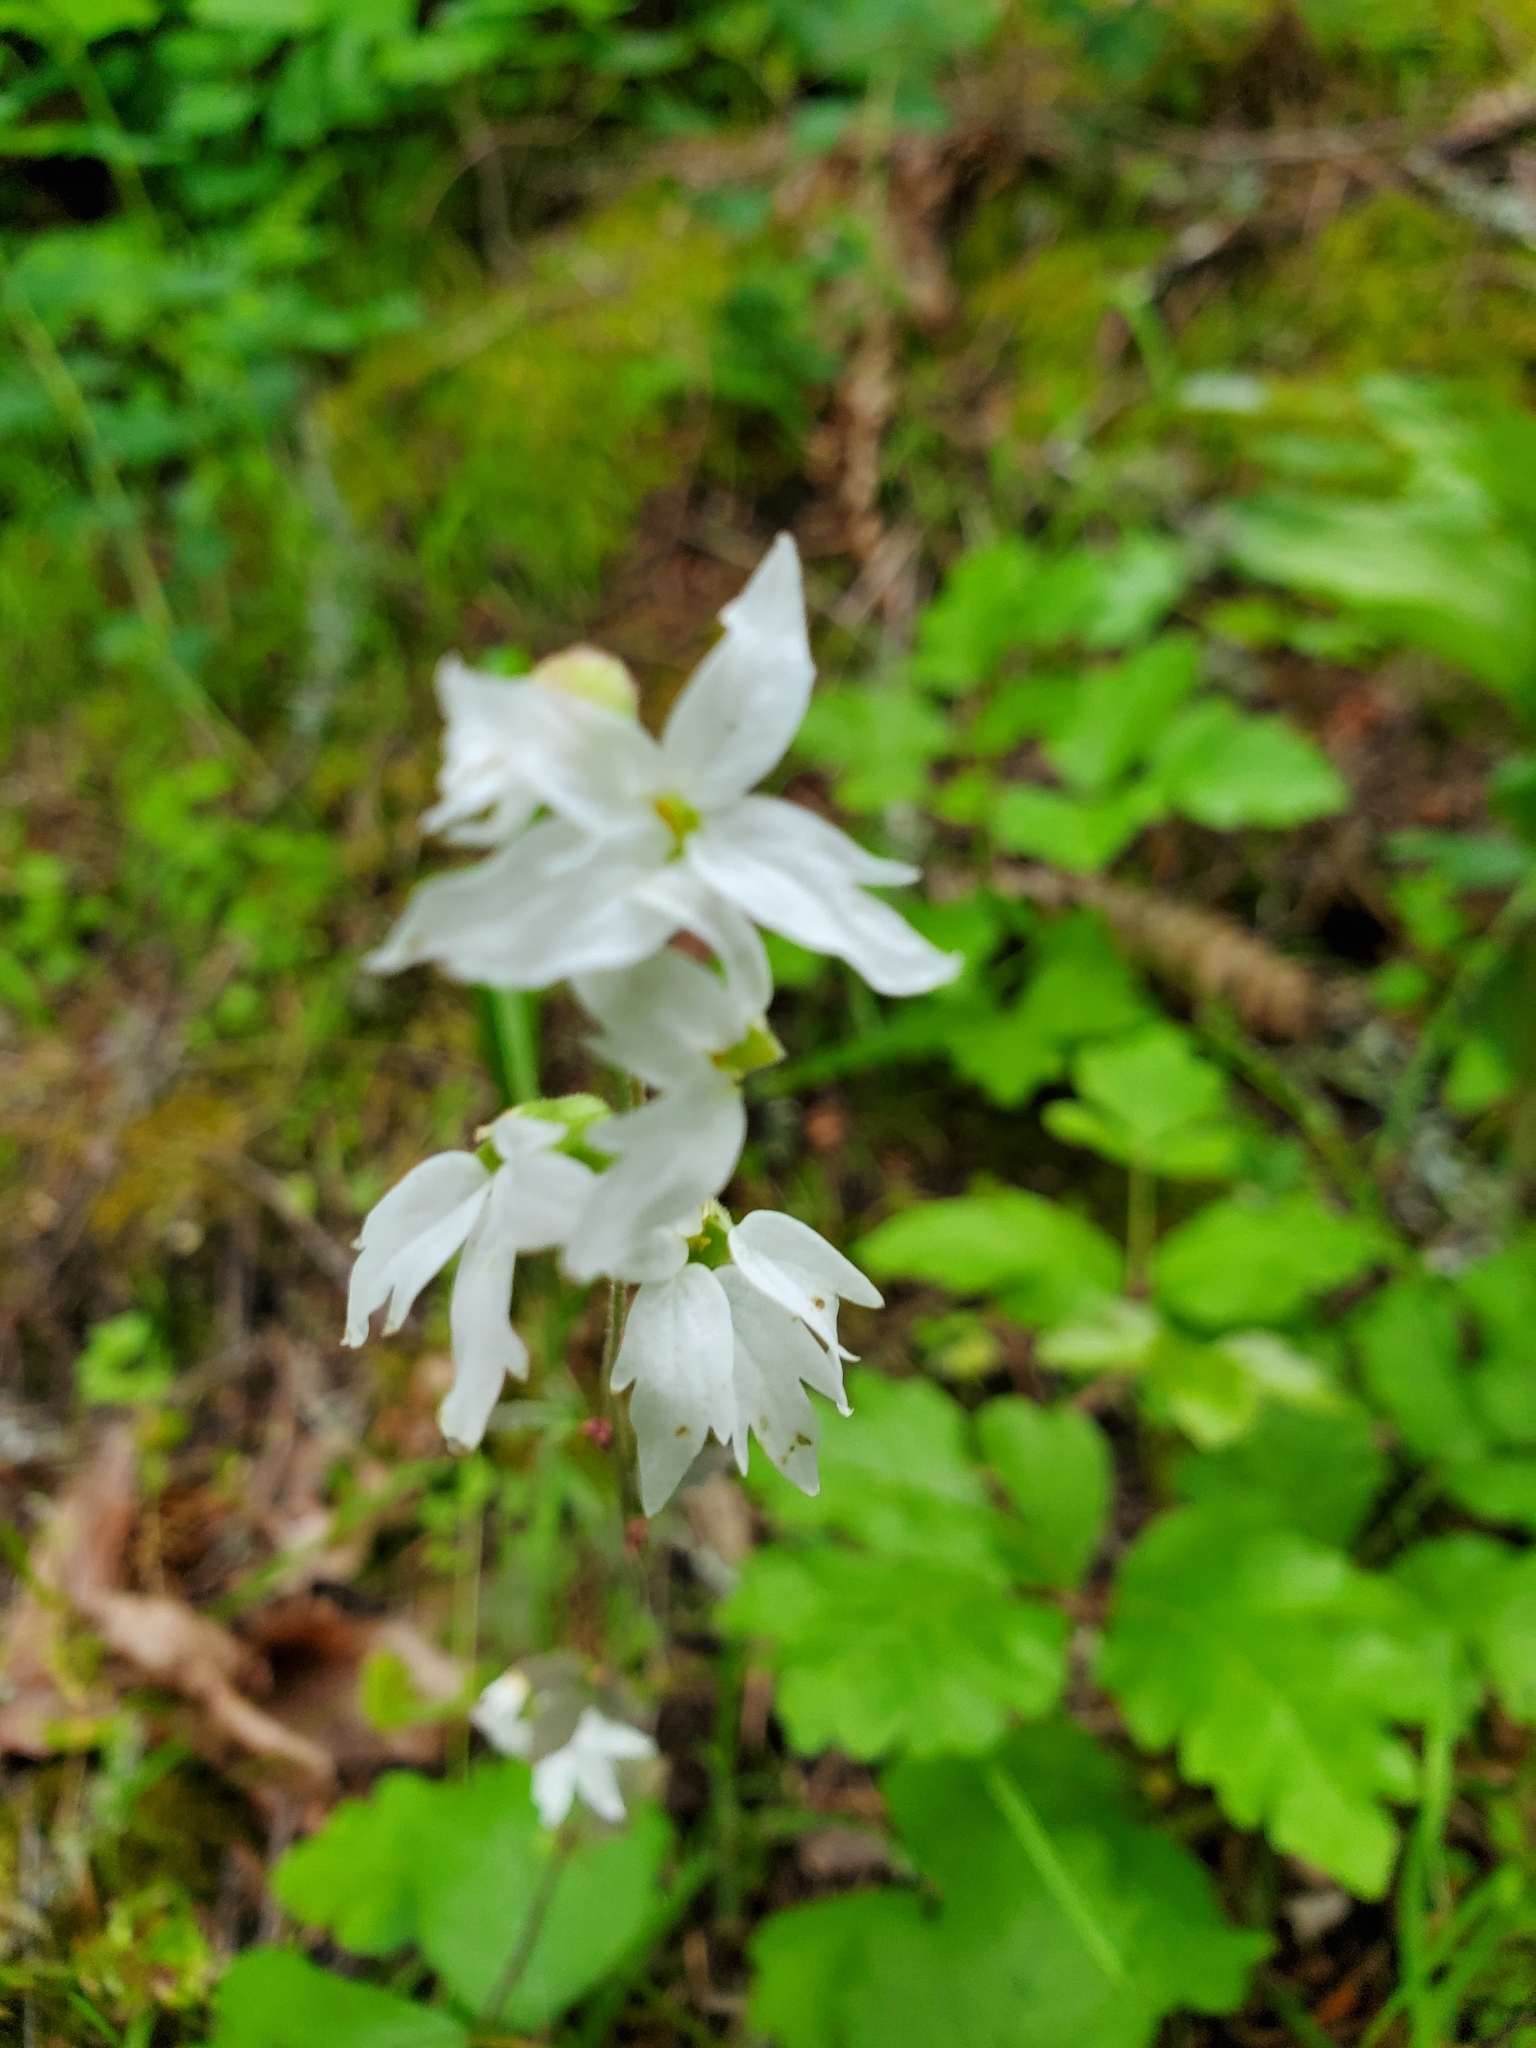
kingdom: Plantae
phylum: Tracheophyta
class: Magnoliopsida
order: Saxifragales
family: Saxifragaceae
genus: Lithophragma
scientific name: Lithophragma heterophyllum
